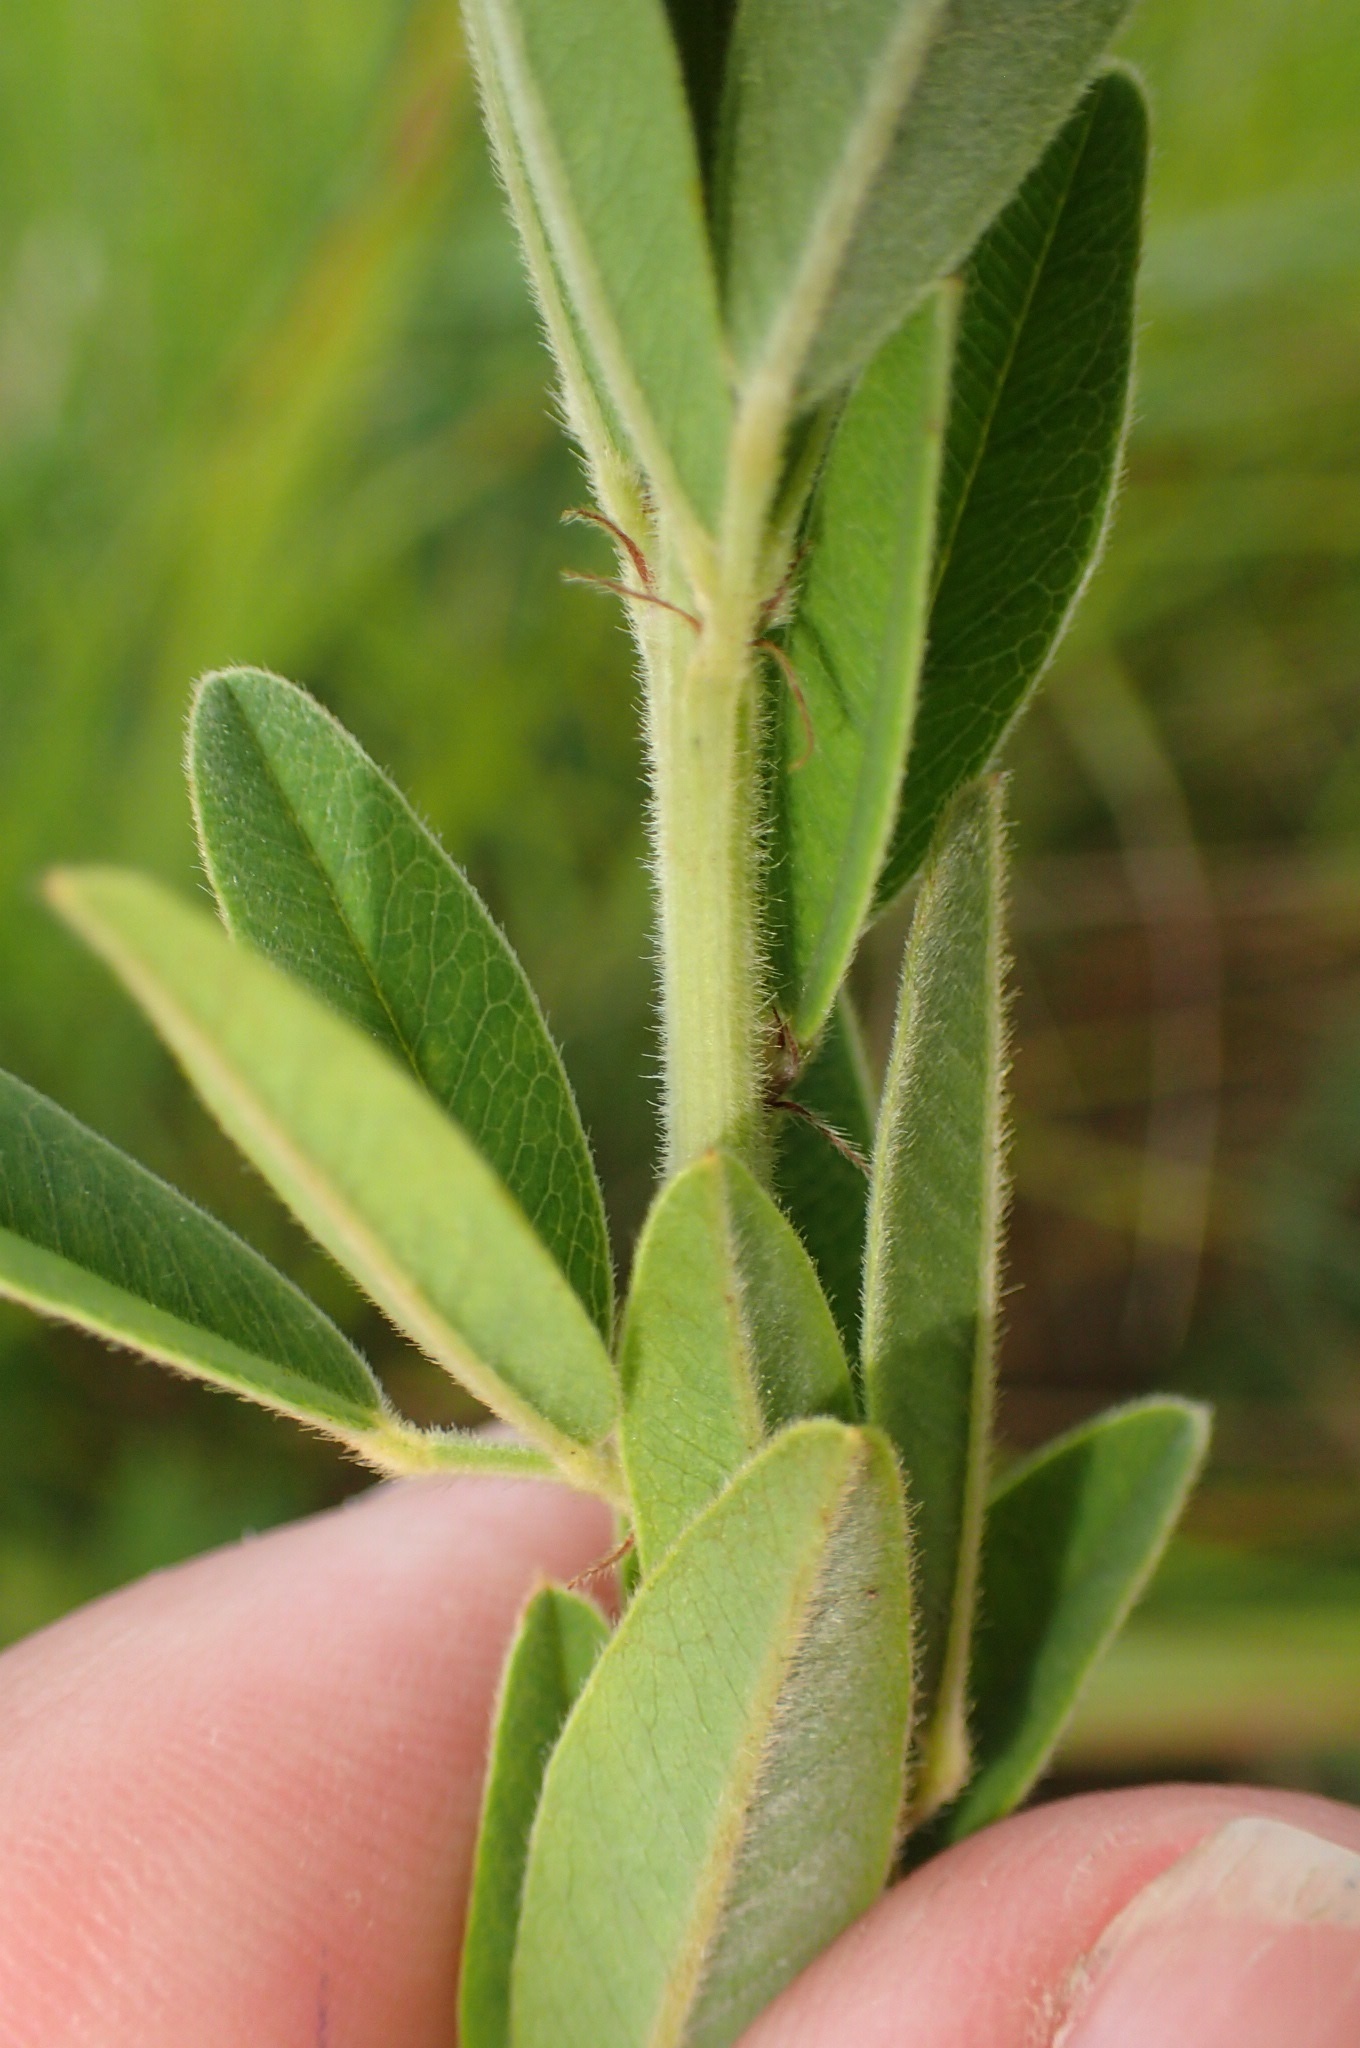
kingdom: Plantae
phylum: Tracheophyta
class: Magnoliopsida
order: Fabales
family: Fabaceae
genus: Lespedeza
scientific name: Lespedeza capitata
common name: Dusty clover
